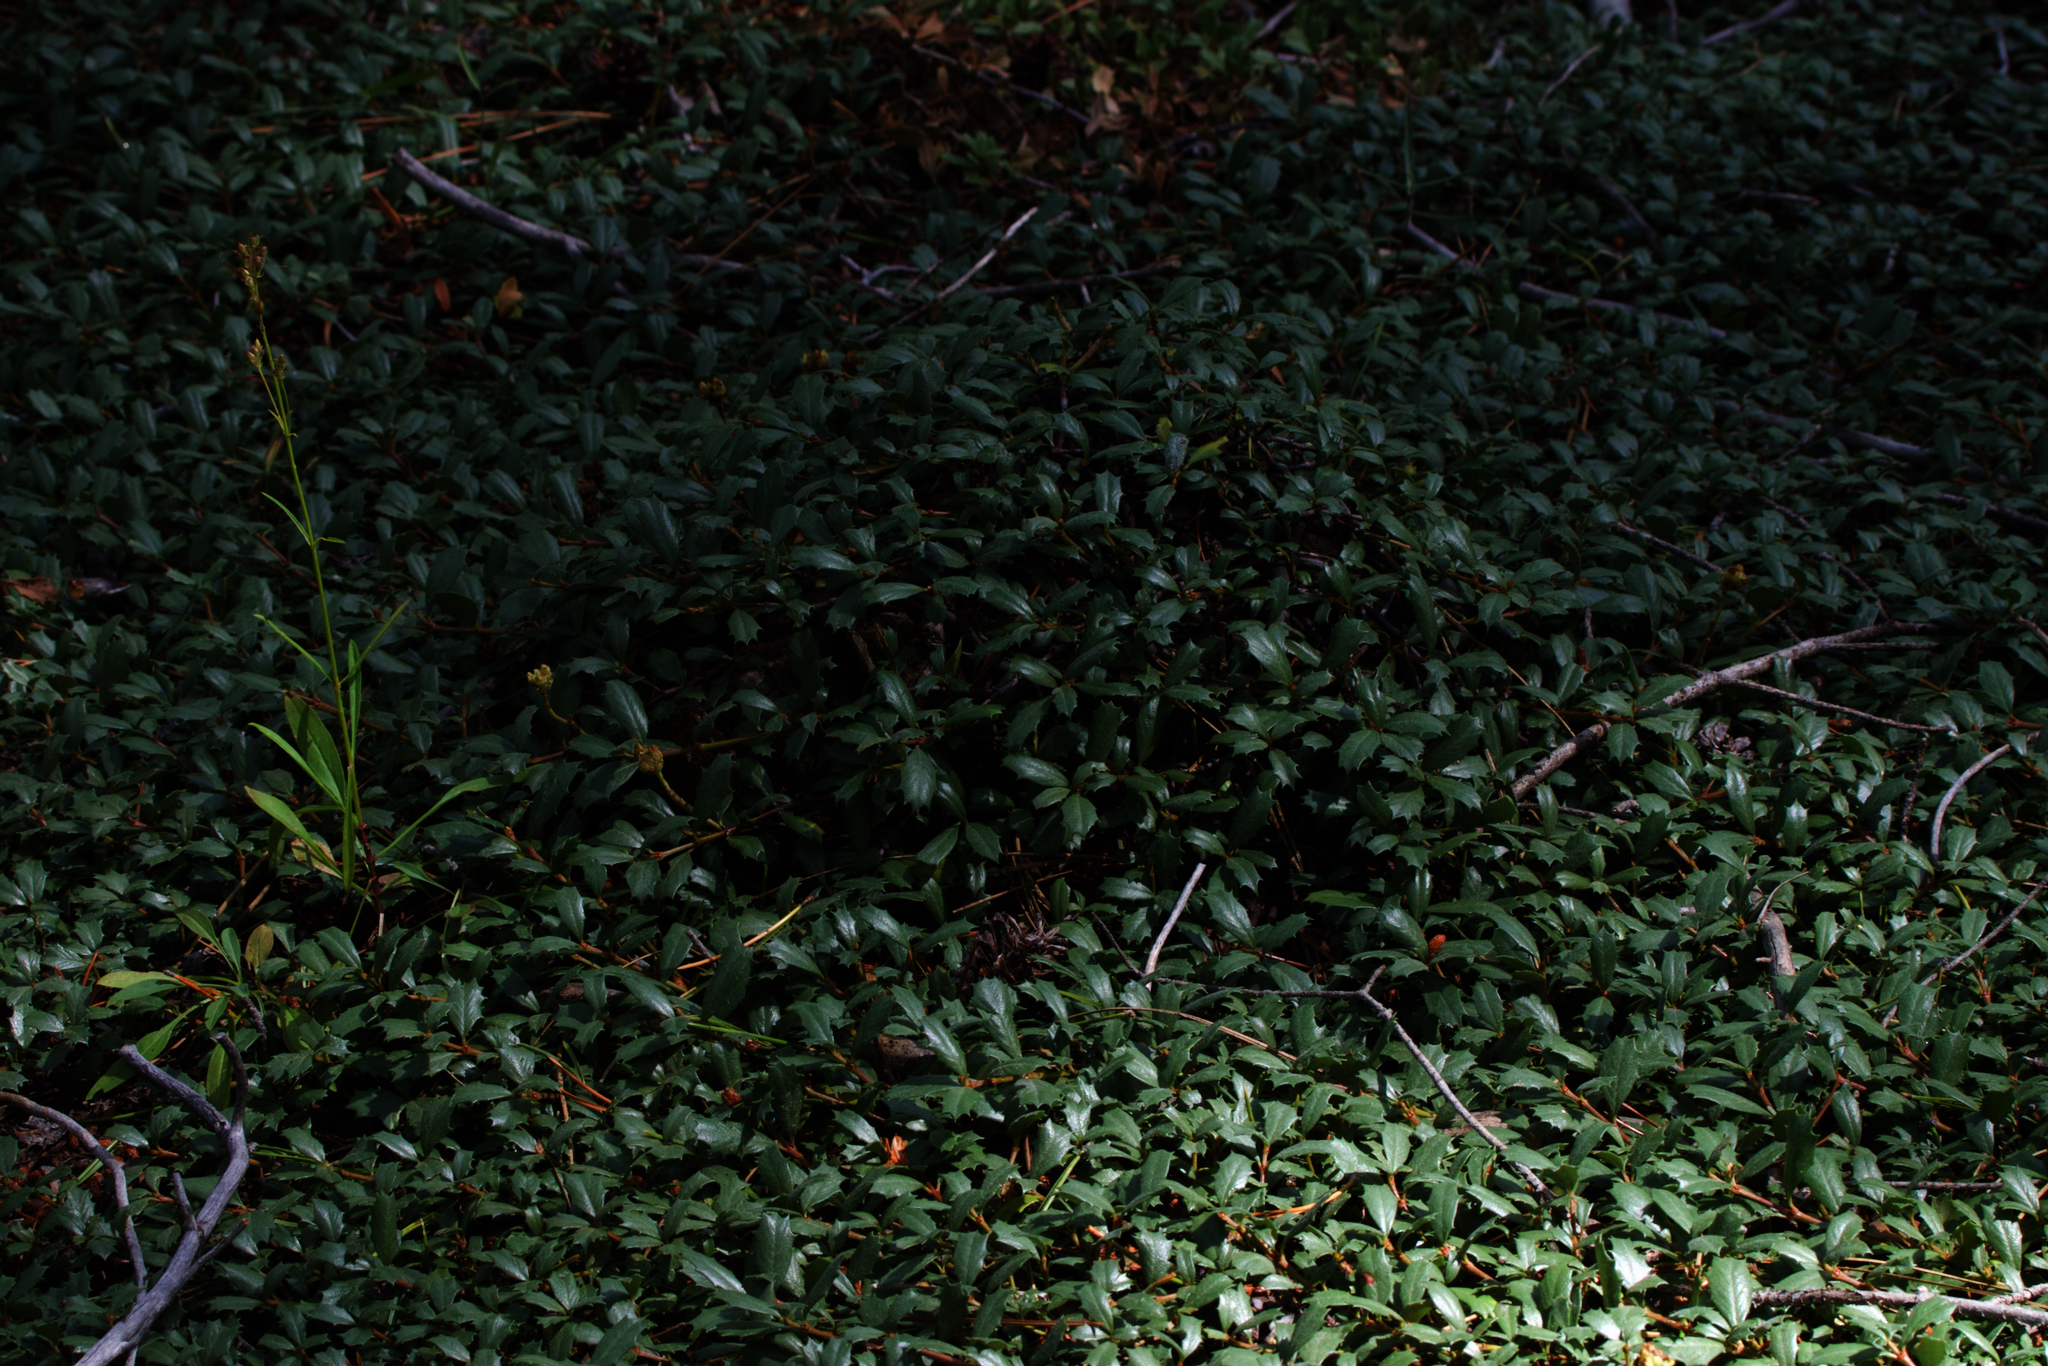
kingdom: Plantae
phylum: Tracheophyta
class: Magnoliopsida
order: Rosales
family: Rhamnaceae
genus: Ceanothus
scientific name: Ceanothus prostratus
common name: Mahala-mat
